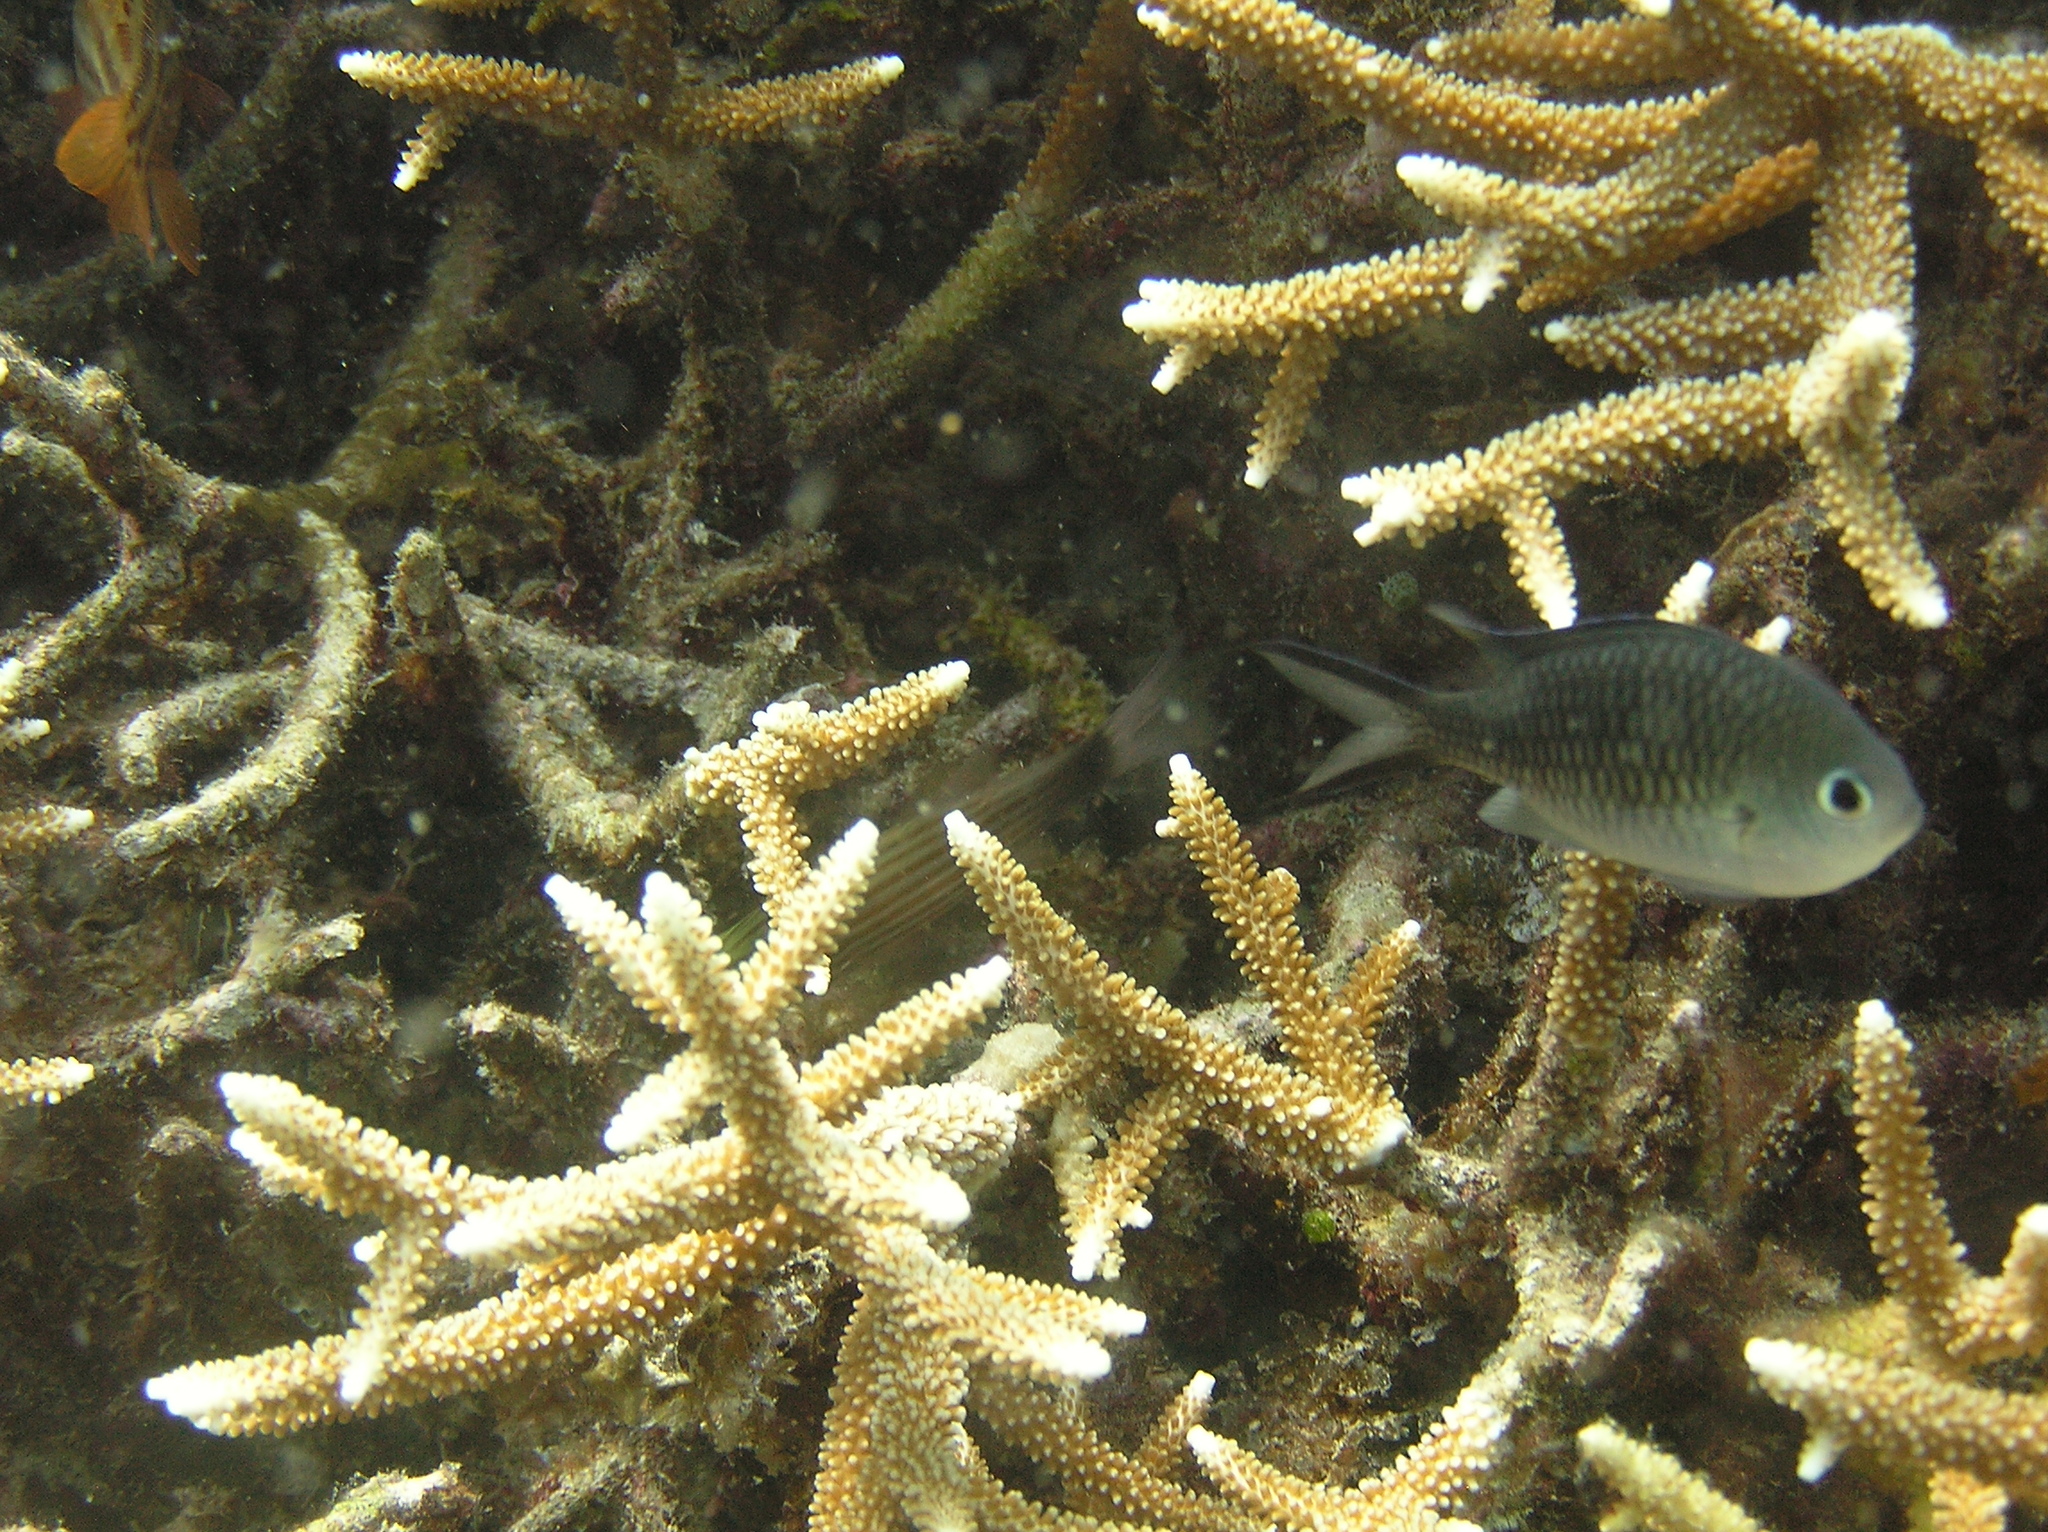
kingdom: Animalia
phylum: Chordata
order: Perciformes
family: Pomacentridae
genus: Chromis
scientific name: Chromis ternatensis
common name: Ternate chromis
